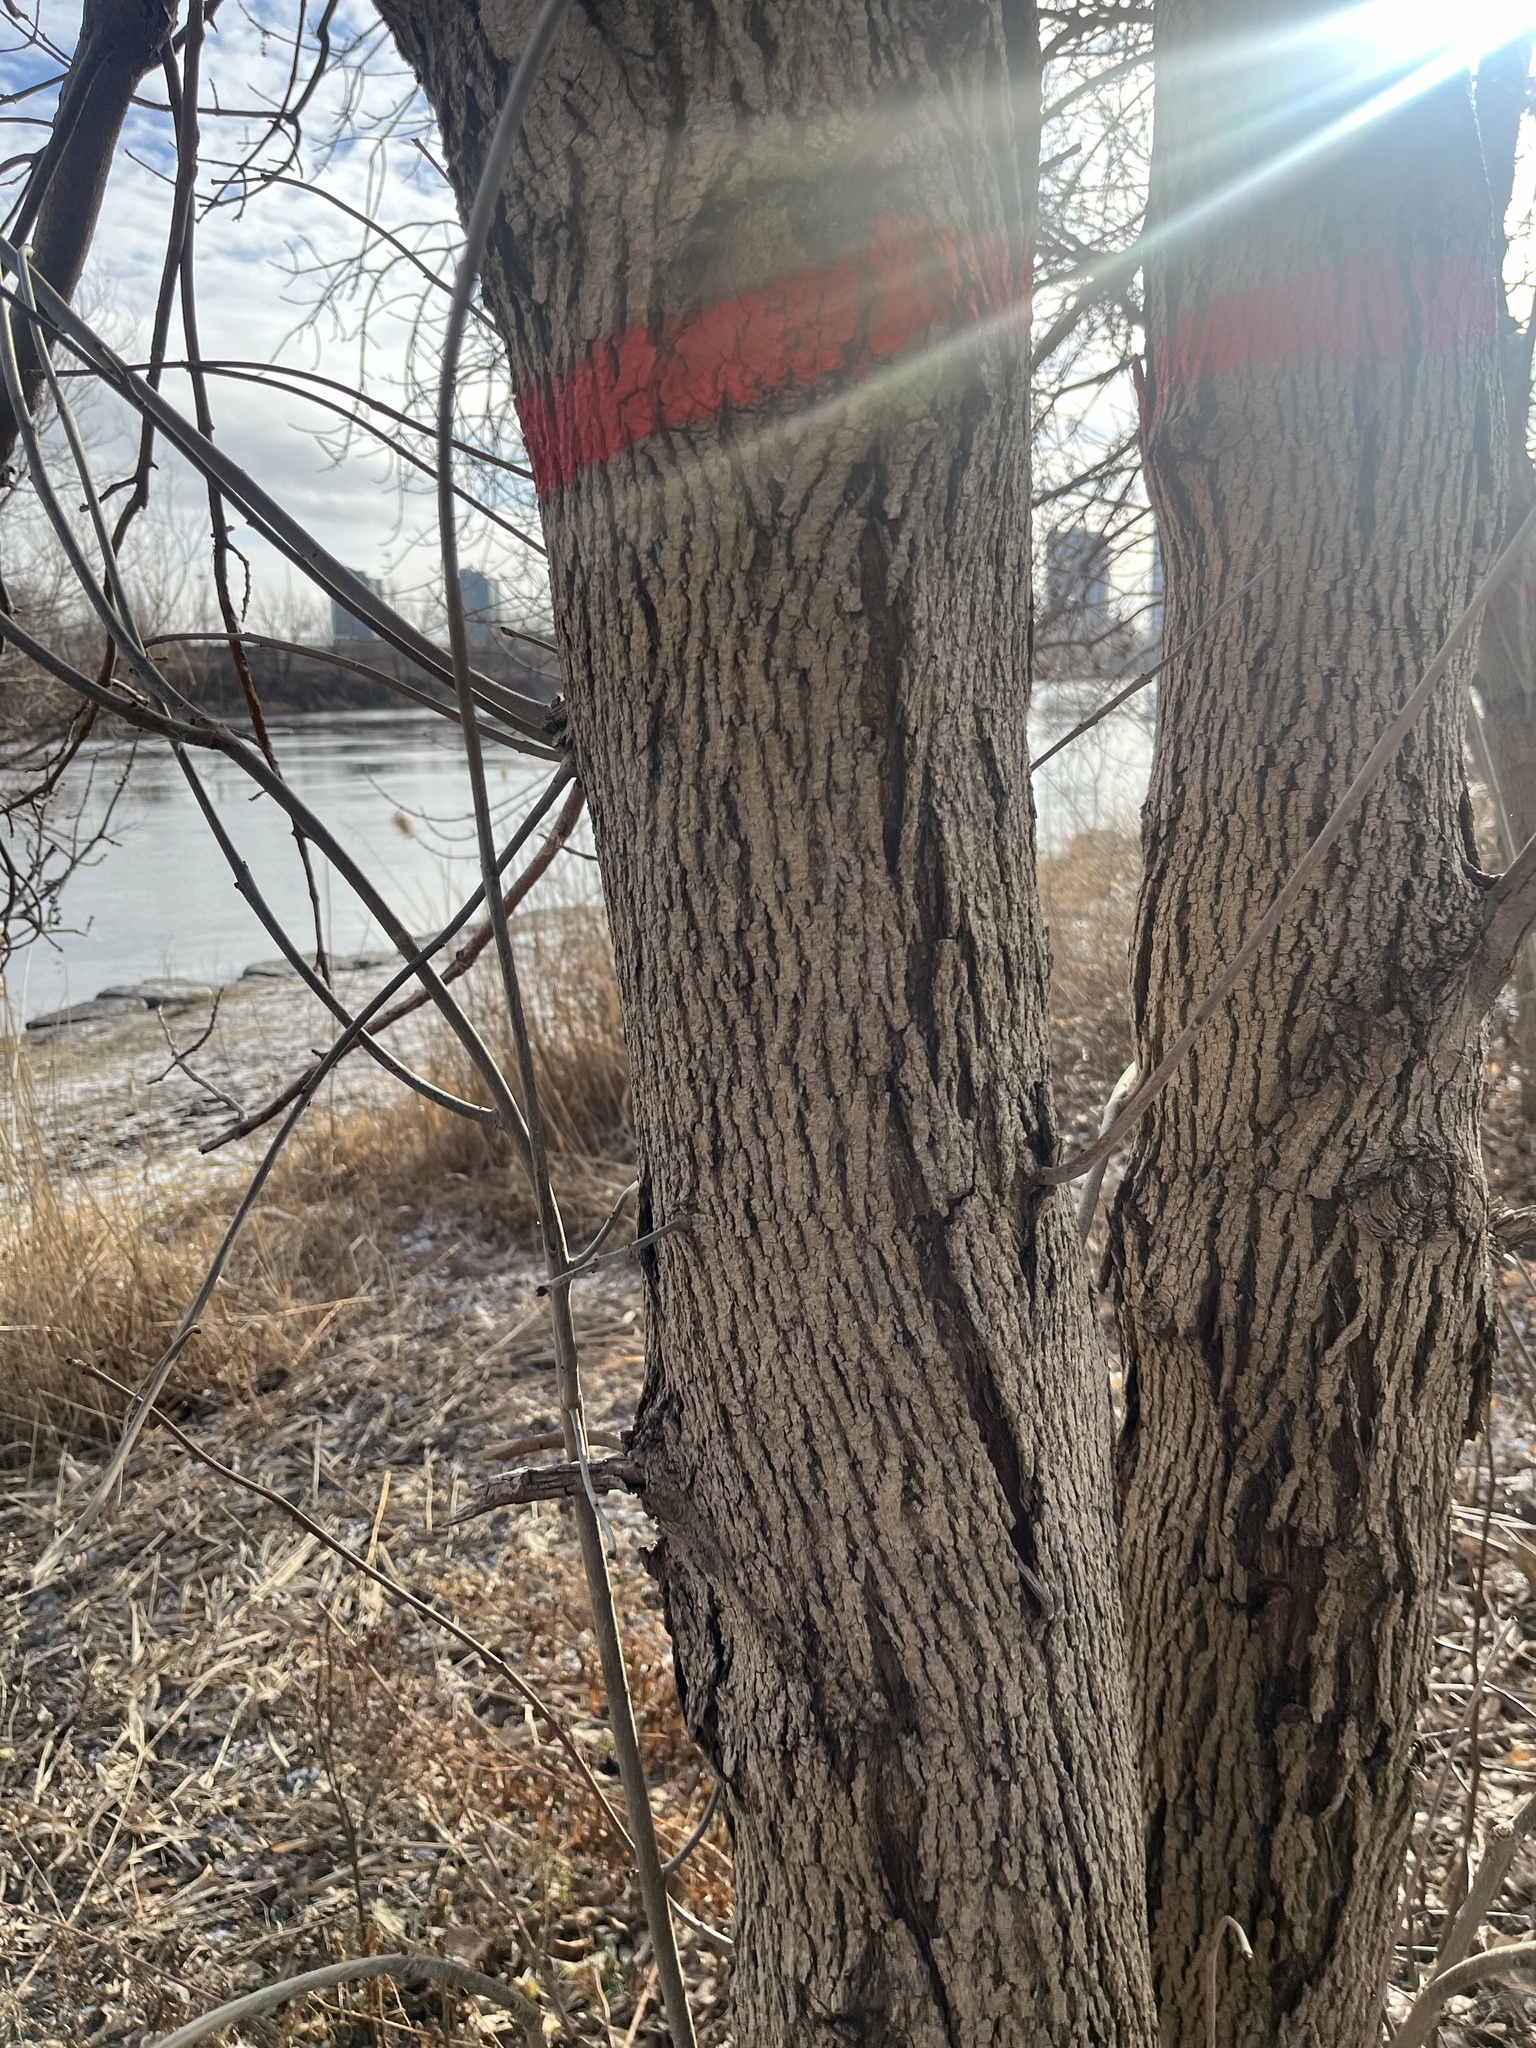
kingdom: Plantae
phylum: Tracheophyta
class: Magnoliopsida
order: Lamiales
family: Oleaceae
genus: Fraxinus
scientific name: Fraxinus pennsylvanica
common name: Green ash
